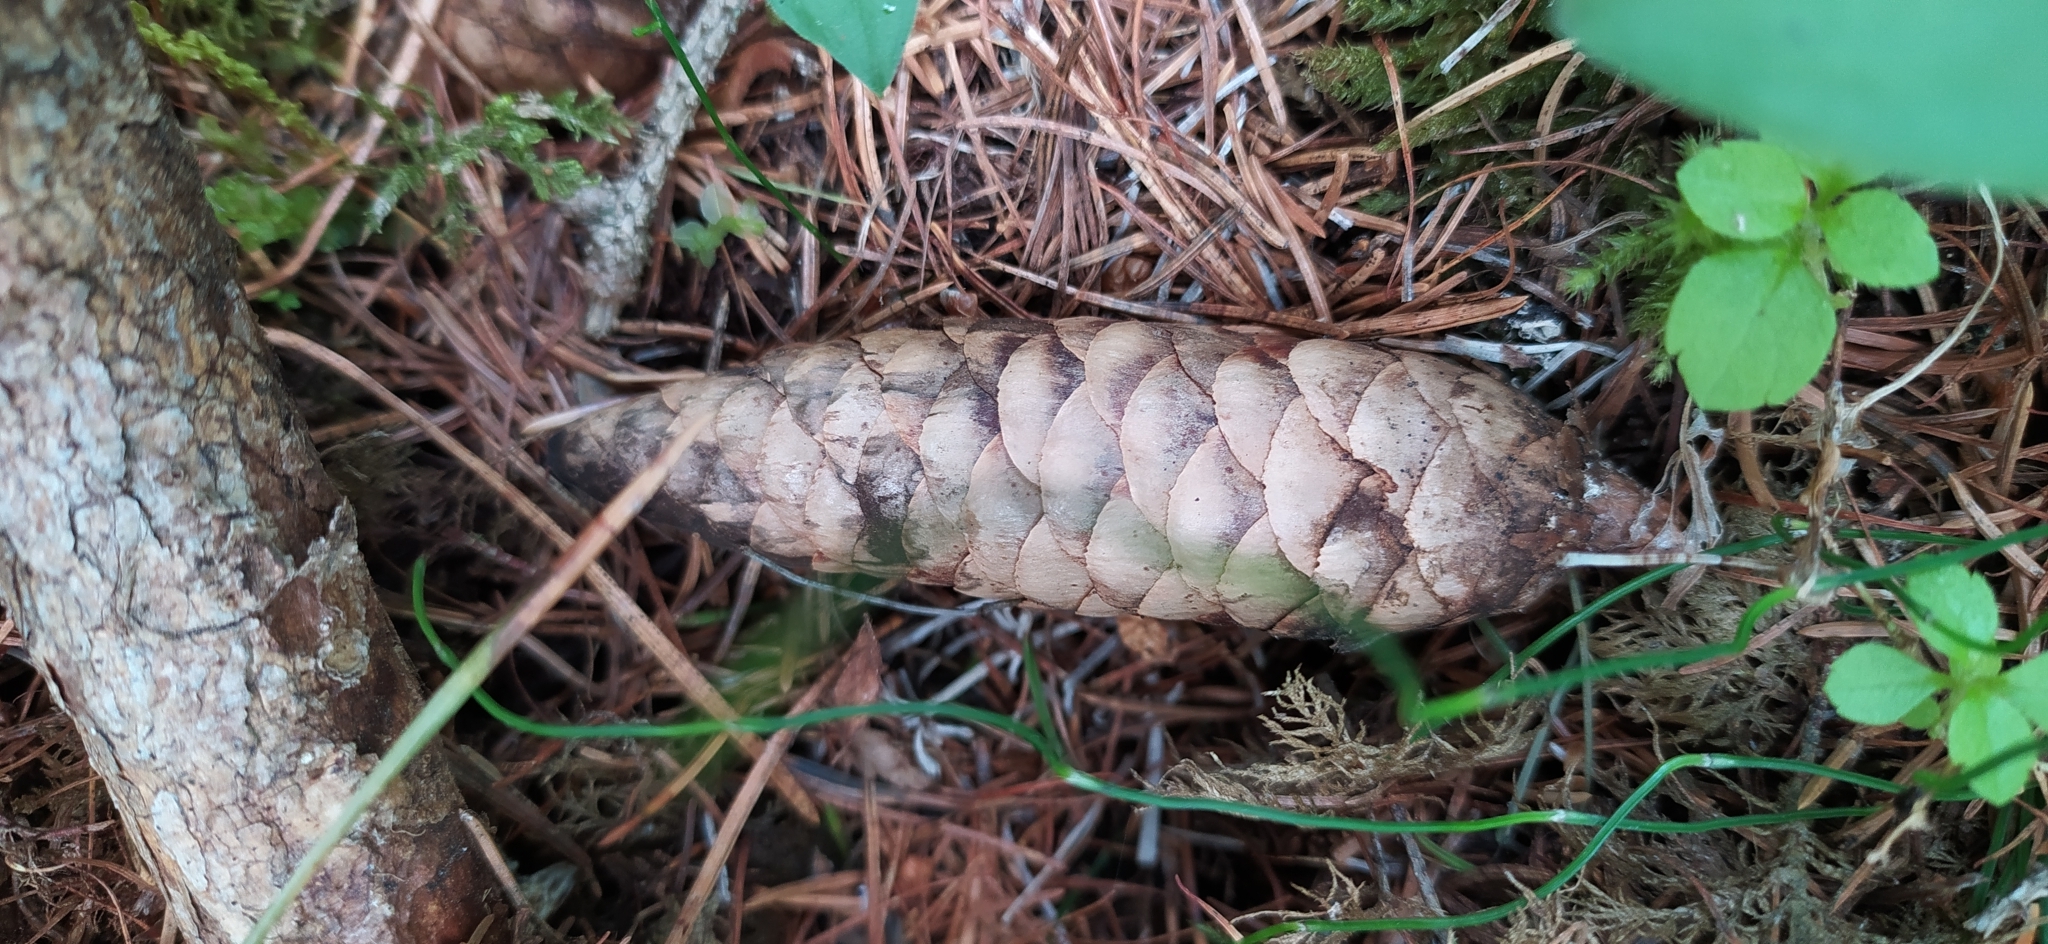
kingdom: Plantae
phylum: Tracheophyta
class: Pinopsida
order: Pinales
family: Pinaceae
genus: Picea
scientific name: Picea obovata
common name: Siberian spruce
